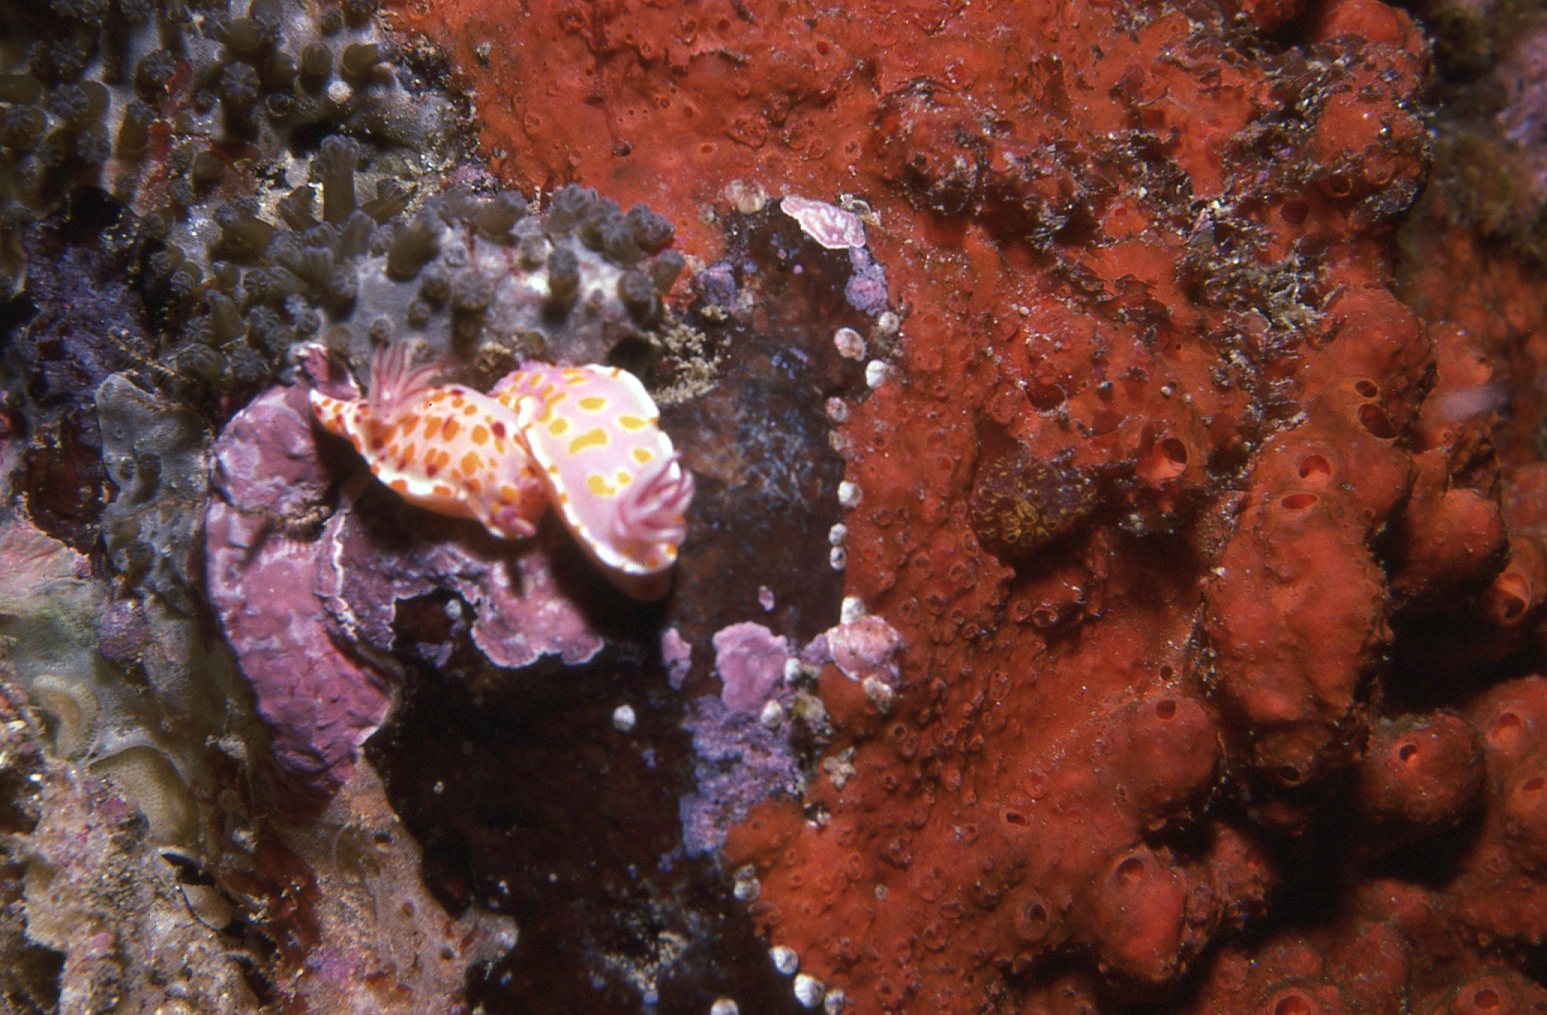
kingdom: Animalia
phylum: Mollusca
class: Gastropoda
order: Nudibranchia
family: Chromodorididae
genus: Ceratosoma
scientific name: Ceratosoma amoenum
